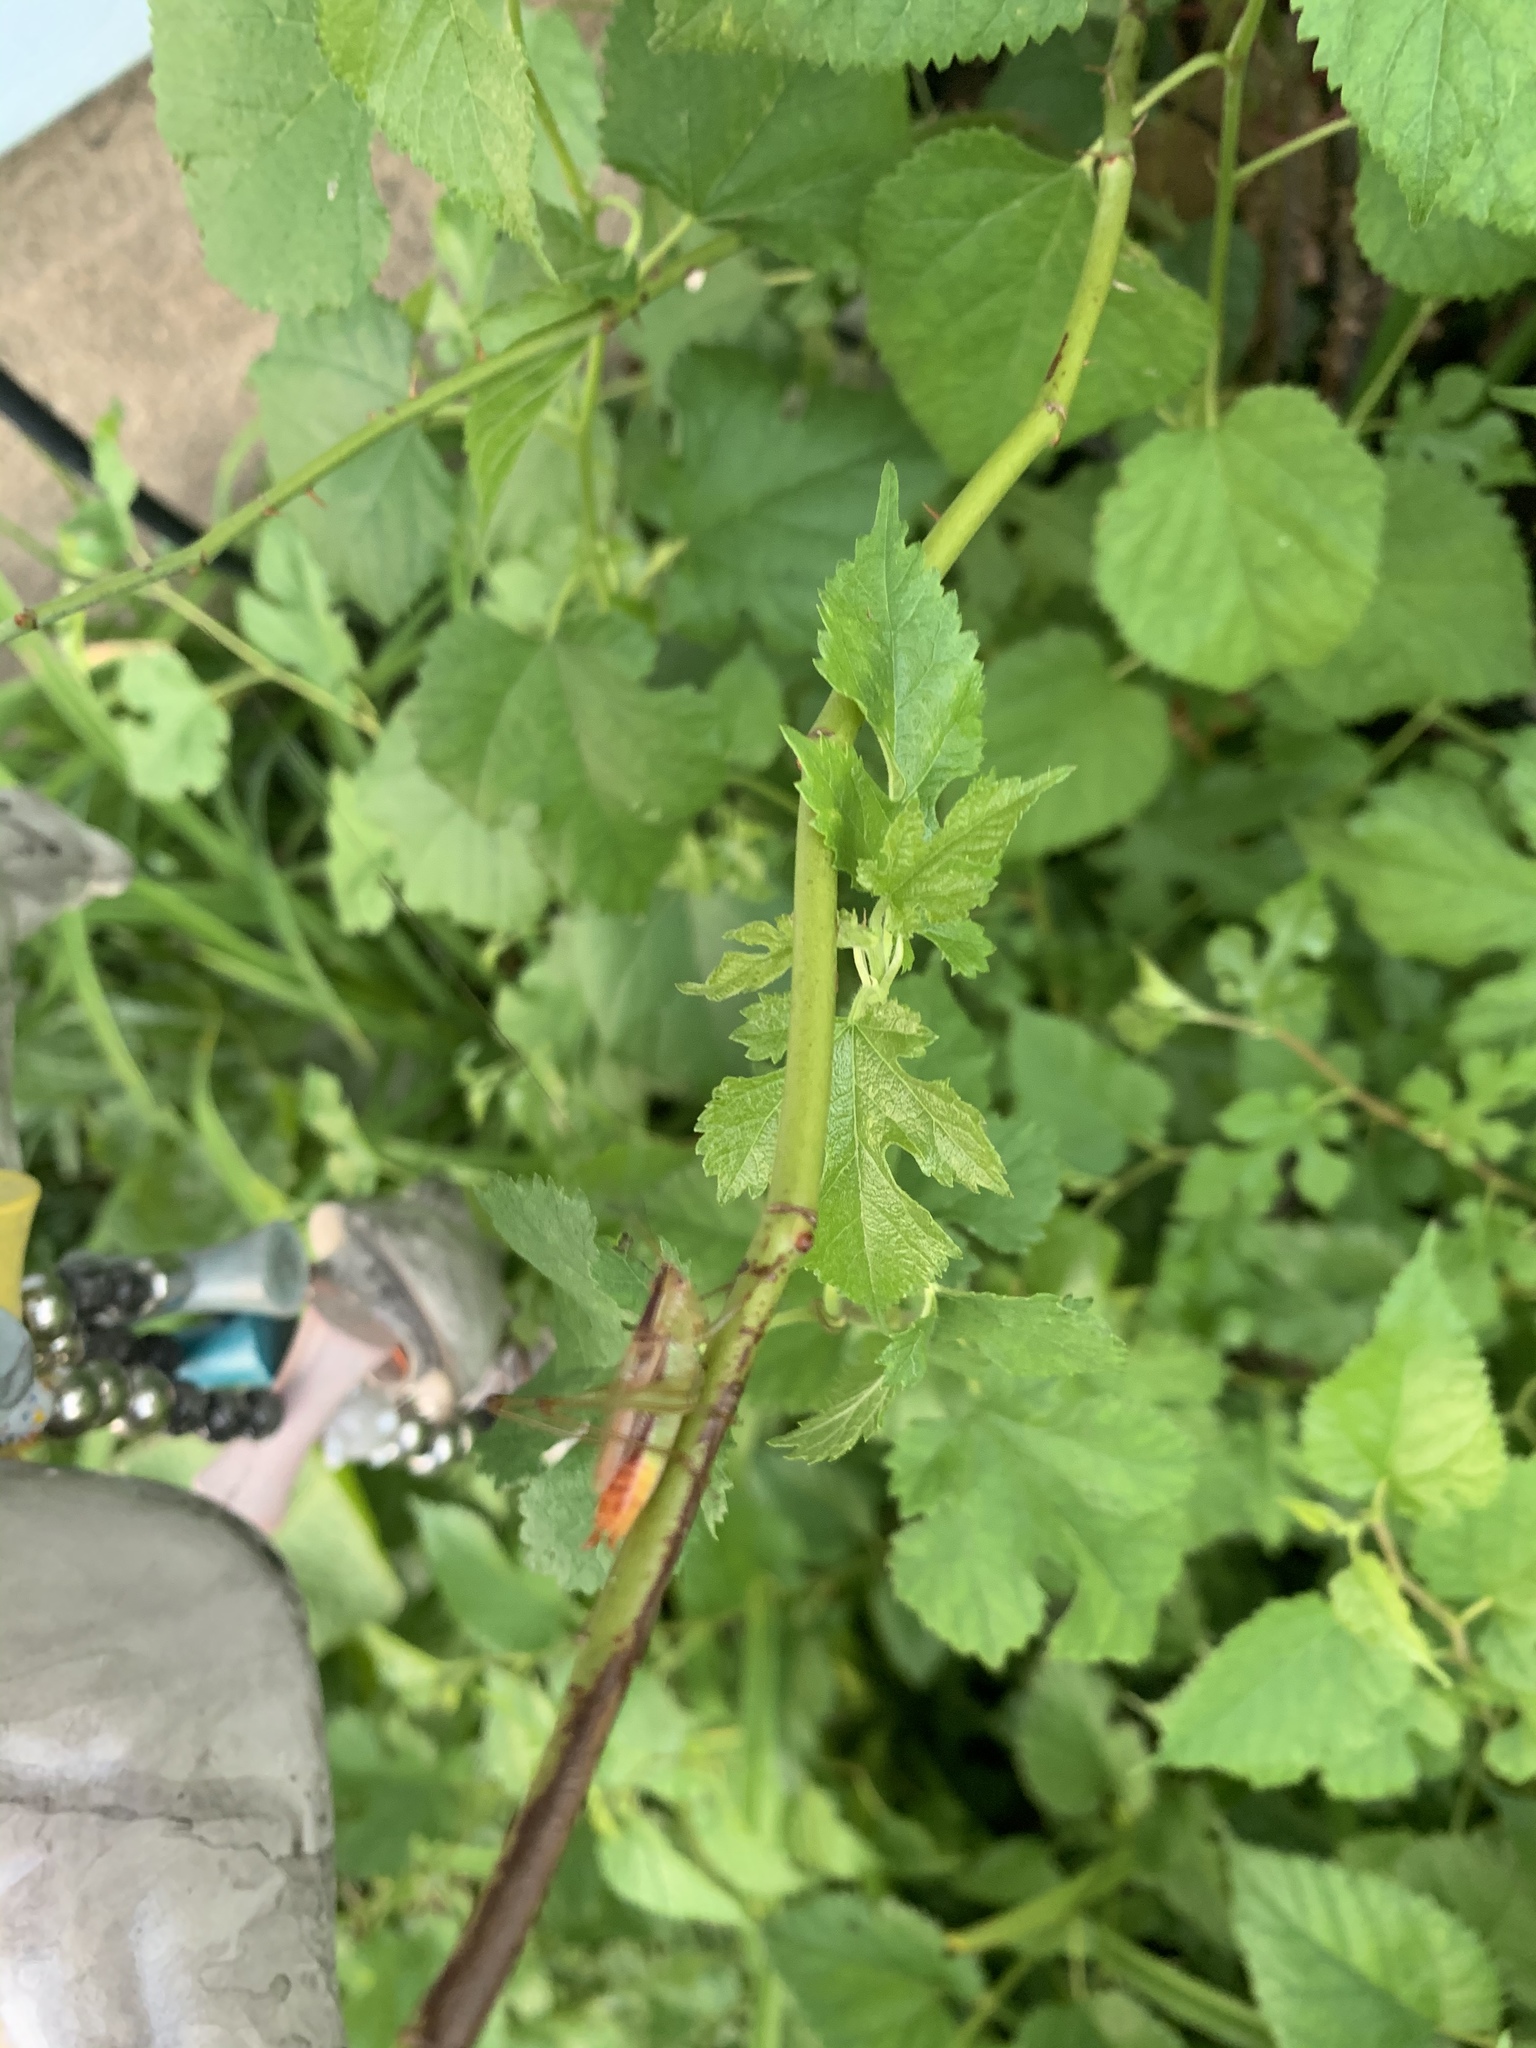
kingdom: Animalia
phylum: Arthropoda
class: Insecta
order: Orthoptera
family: Tettigoniidae
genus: Conocephalus
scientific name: Conocephalus brevipennis
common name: Short-winged meadow katydid
